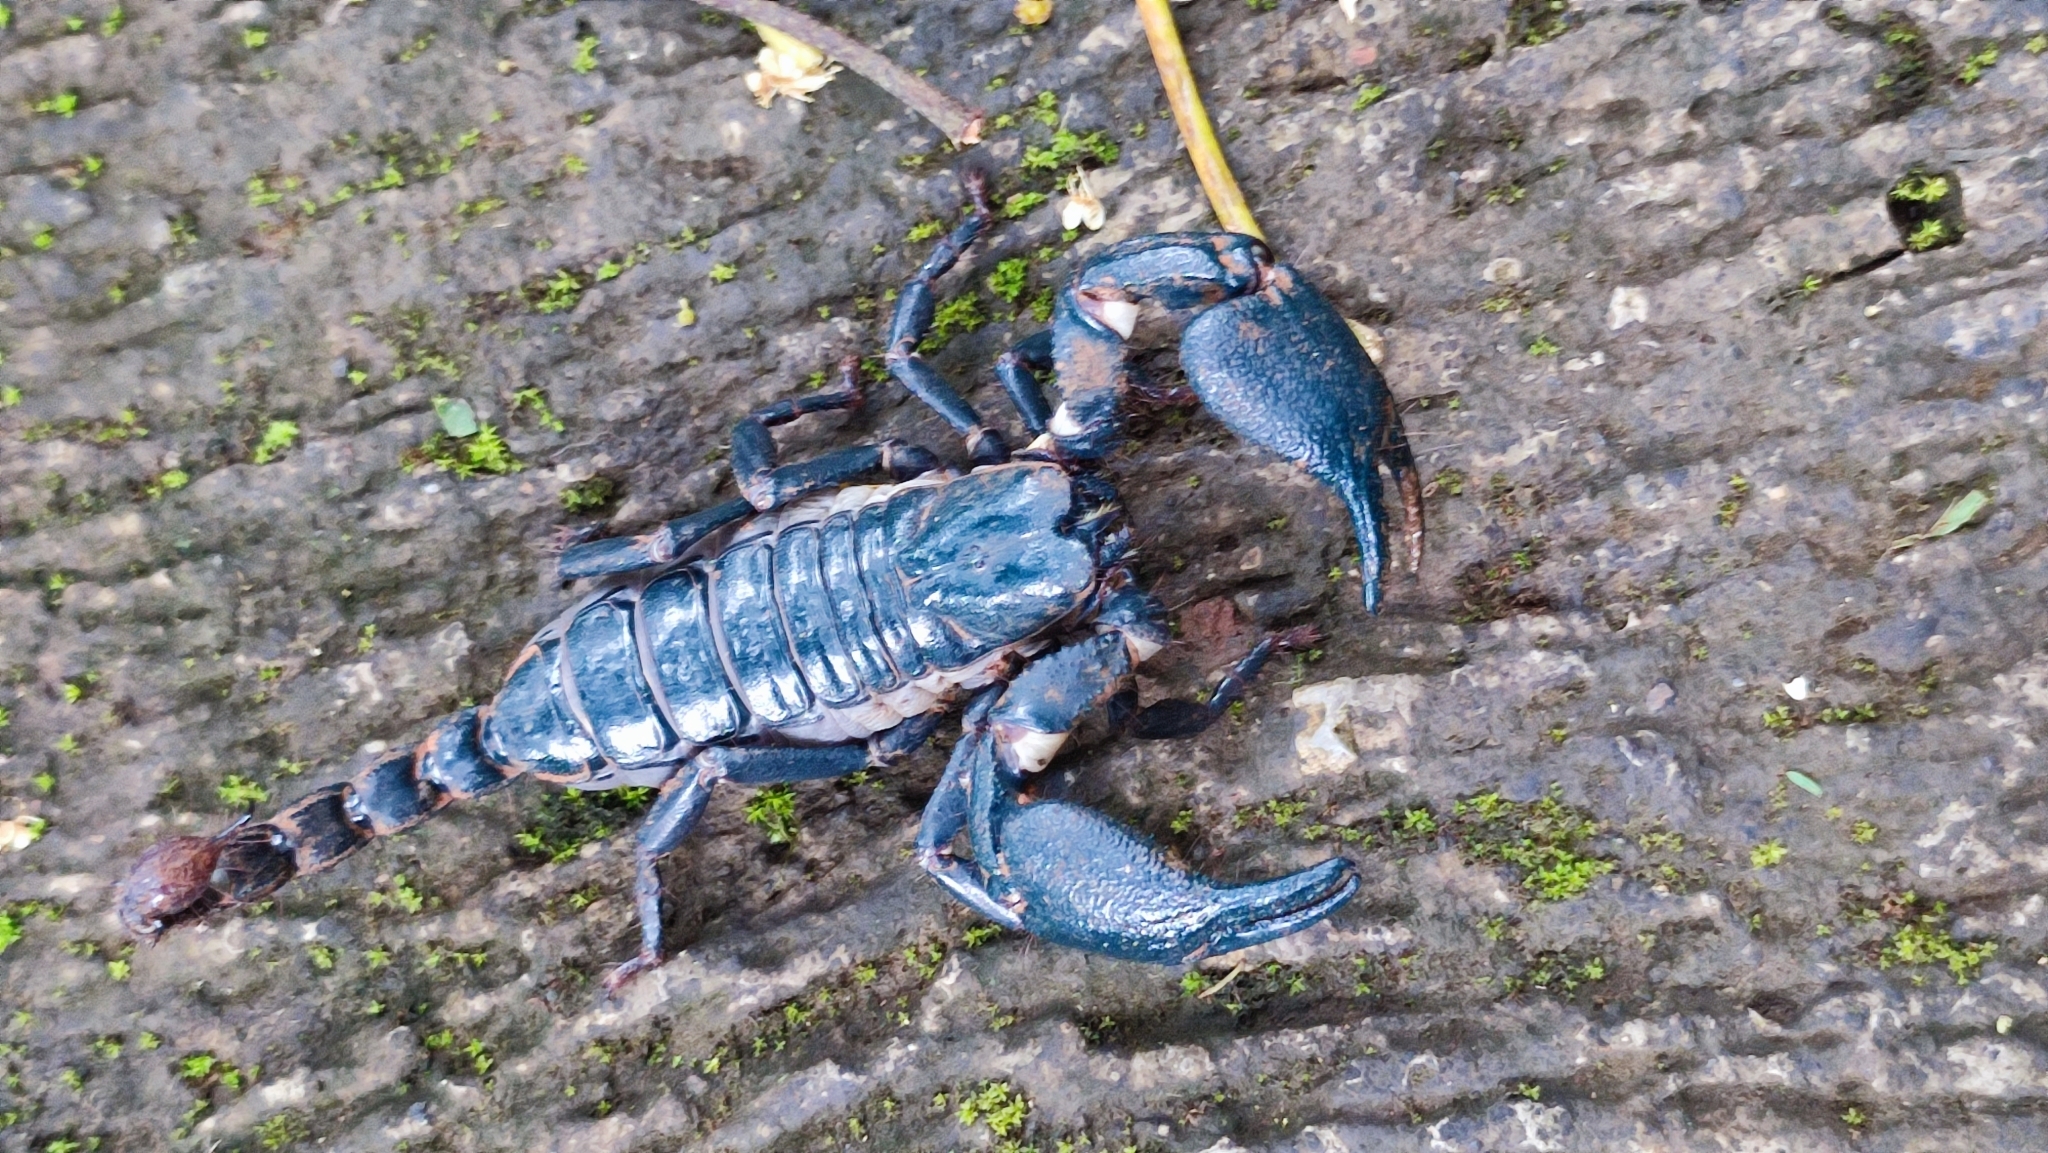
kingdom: Animalia
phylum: Arthropoda
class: Arachnida
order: Scorpiones
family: Scorpionidae
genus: Javanimetrus
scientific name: Javanimetrus cyaneus
